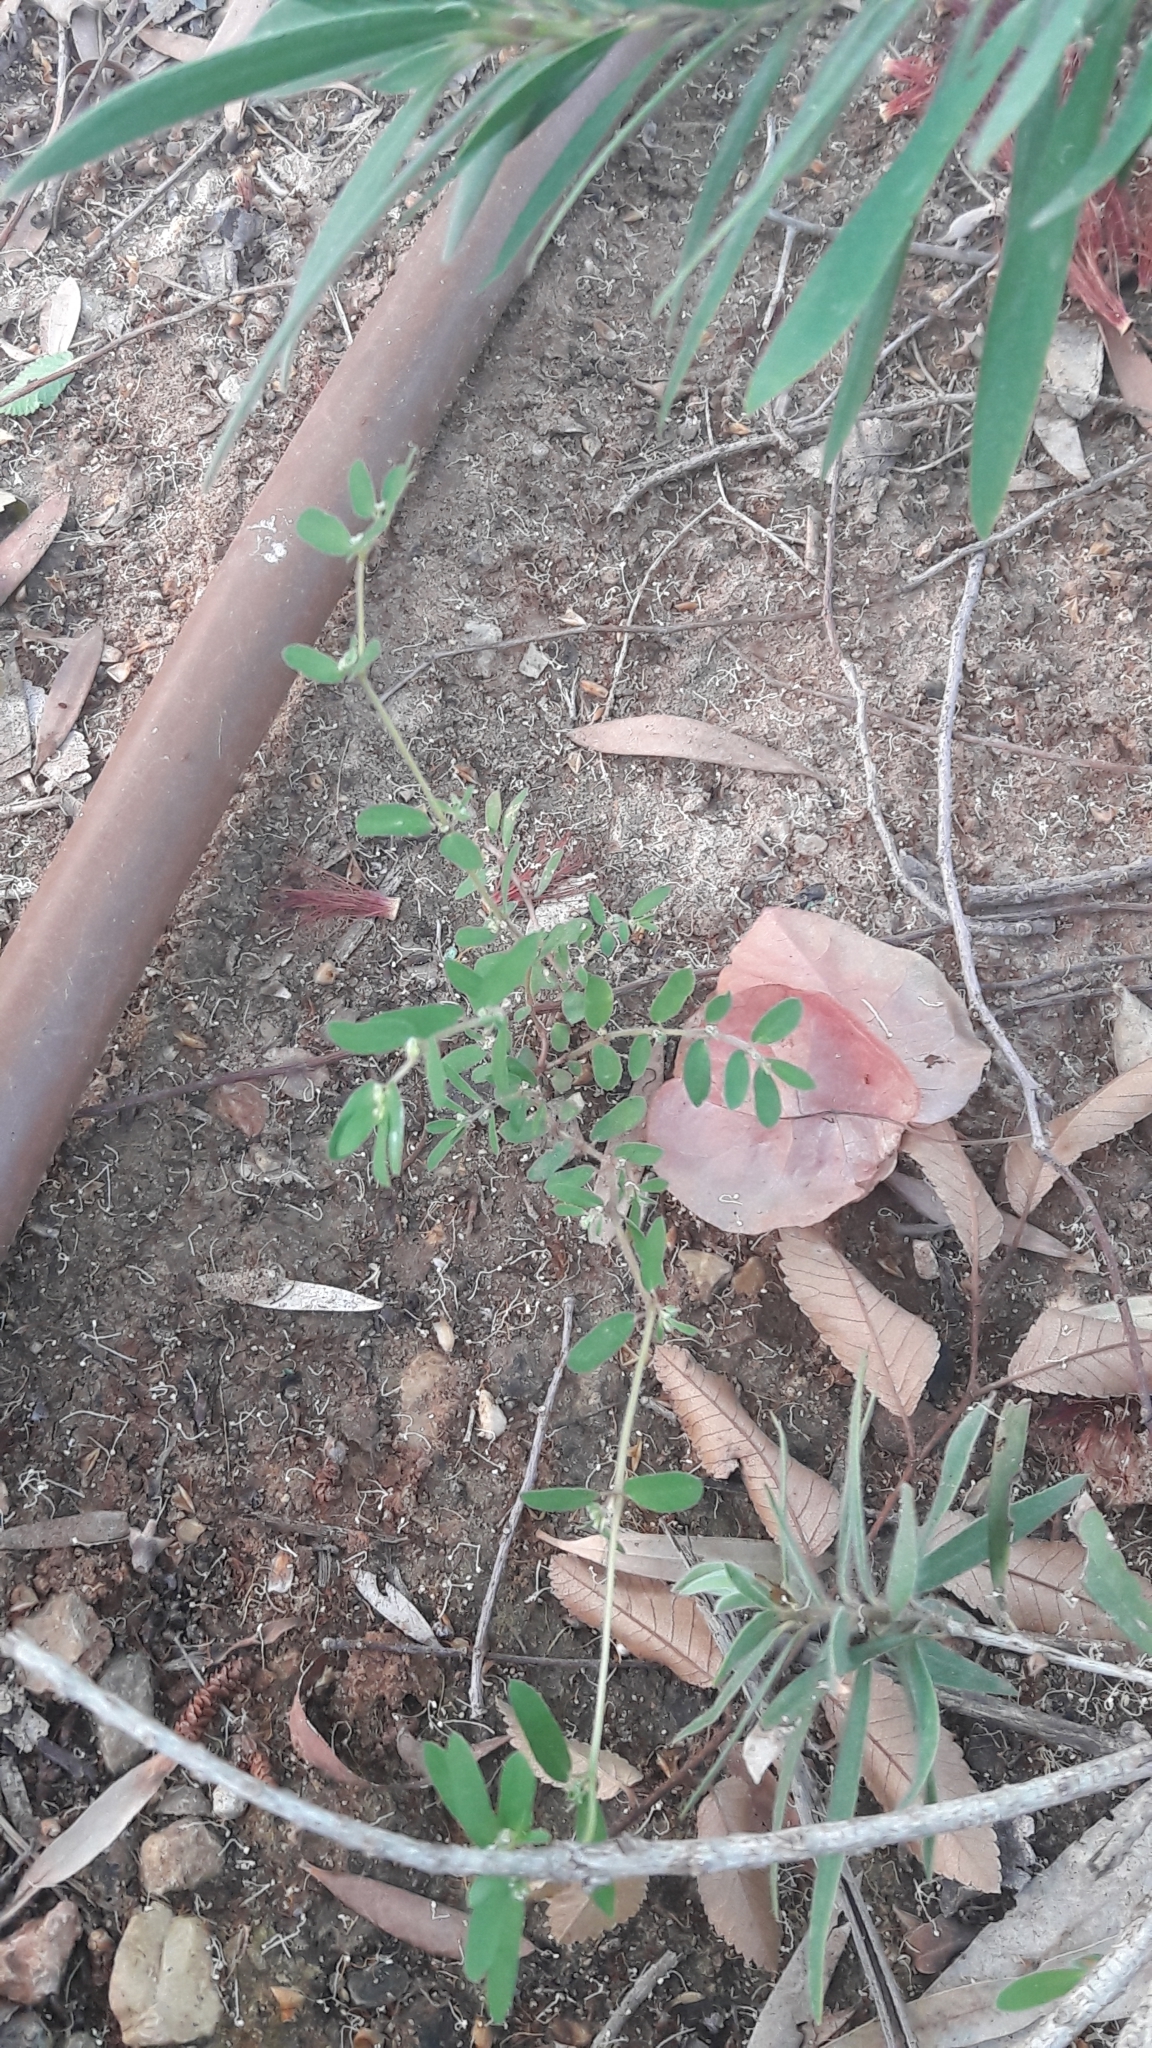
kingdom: Plantae
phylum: Tracheophyta
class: Magnoliopsida
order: Malpighiales
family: Euphorbiaceae
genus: Euphorbia
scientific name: Euphorbia maculata
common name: Spotted spurge
